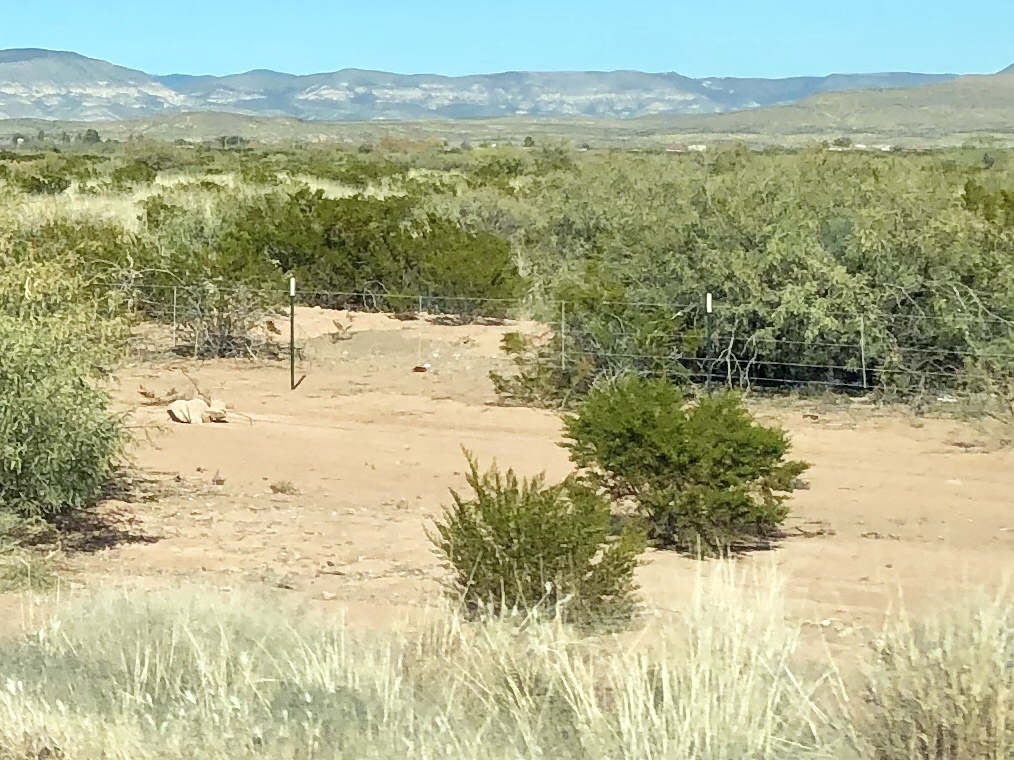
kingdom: Plantae
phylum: Tracheophyta
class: Magnoliopsida
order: Zygophyllales
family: Zygophyllaceae
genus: Larrea
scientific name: Larrea tridentata
